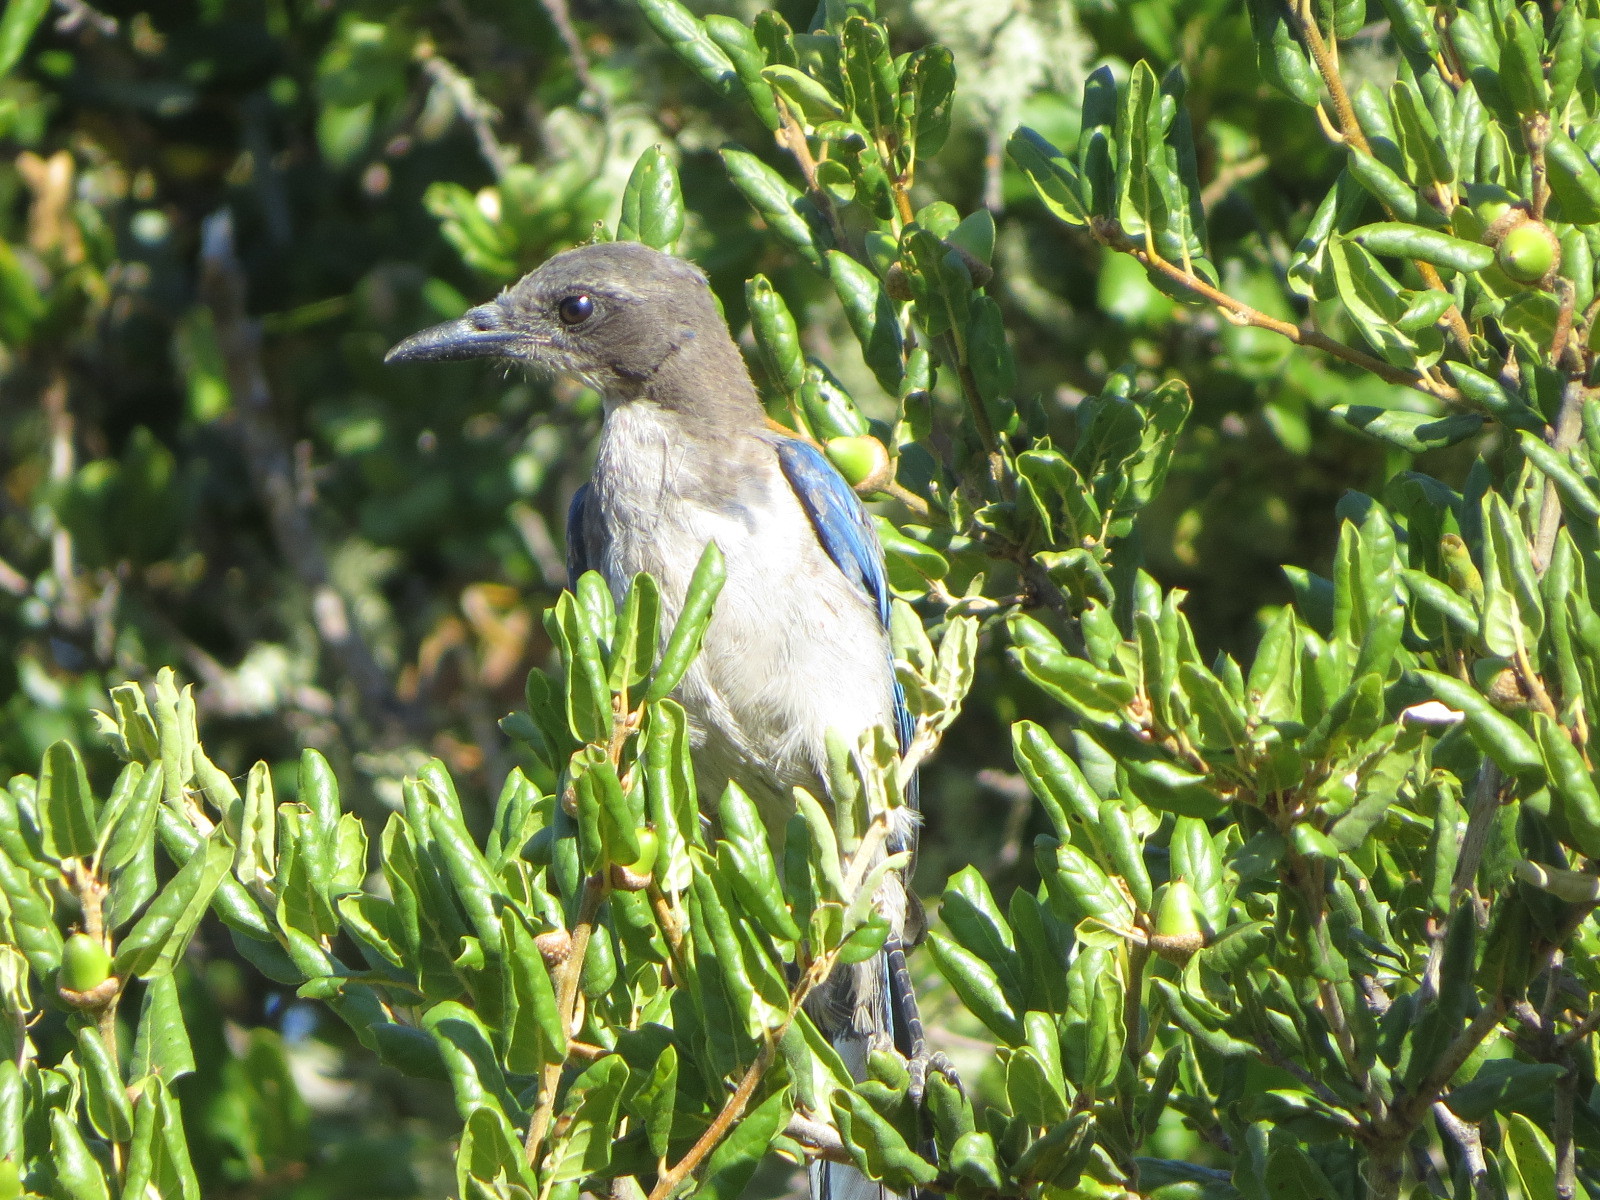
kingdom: Animalia
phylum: Chordata
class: Aves
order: Passeriformes
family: Corvidae
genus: Aphelocoma
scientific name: Aphelocoma californica
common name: California scrub-jay
